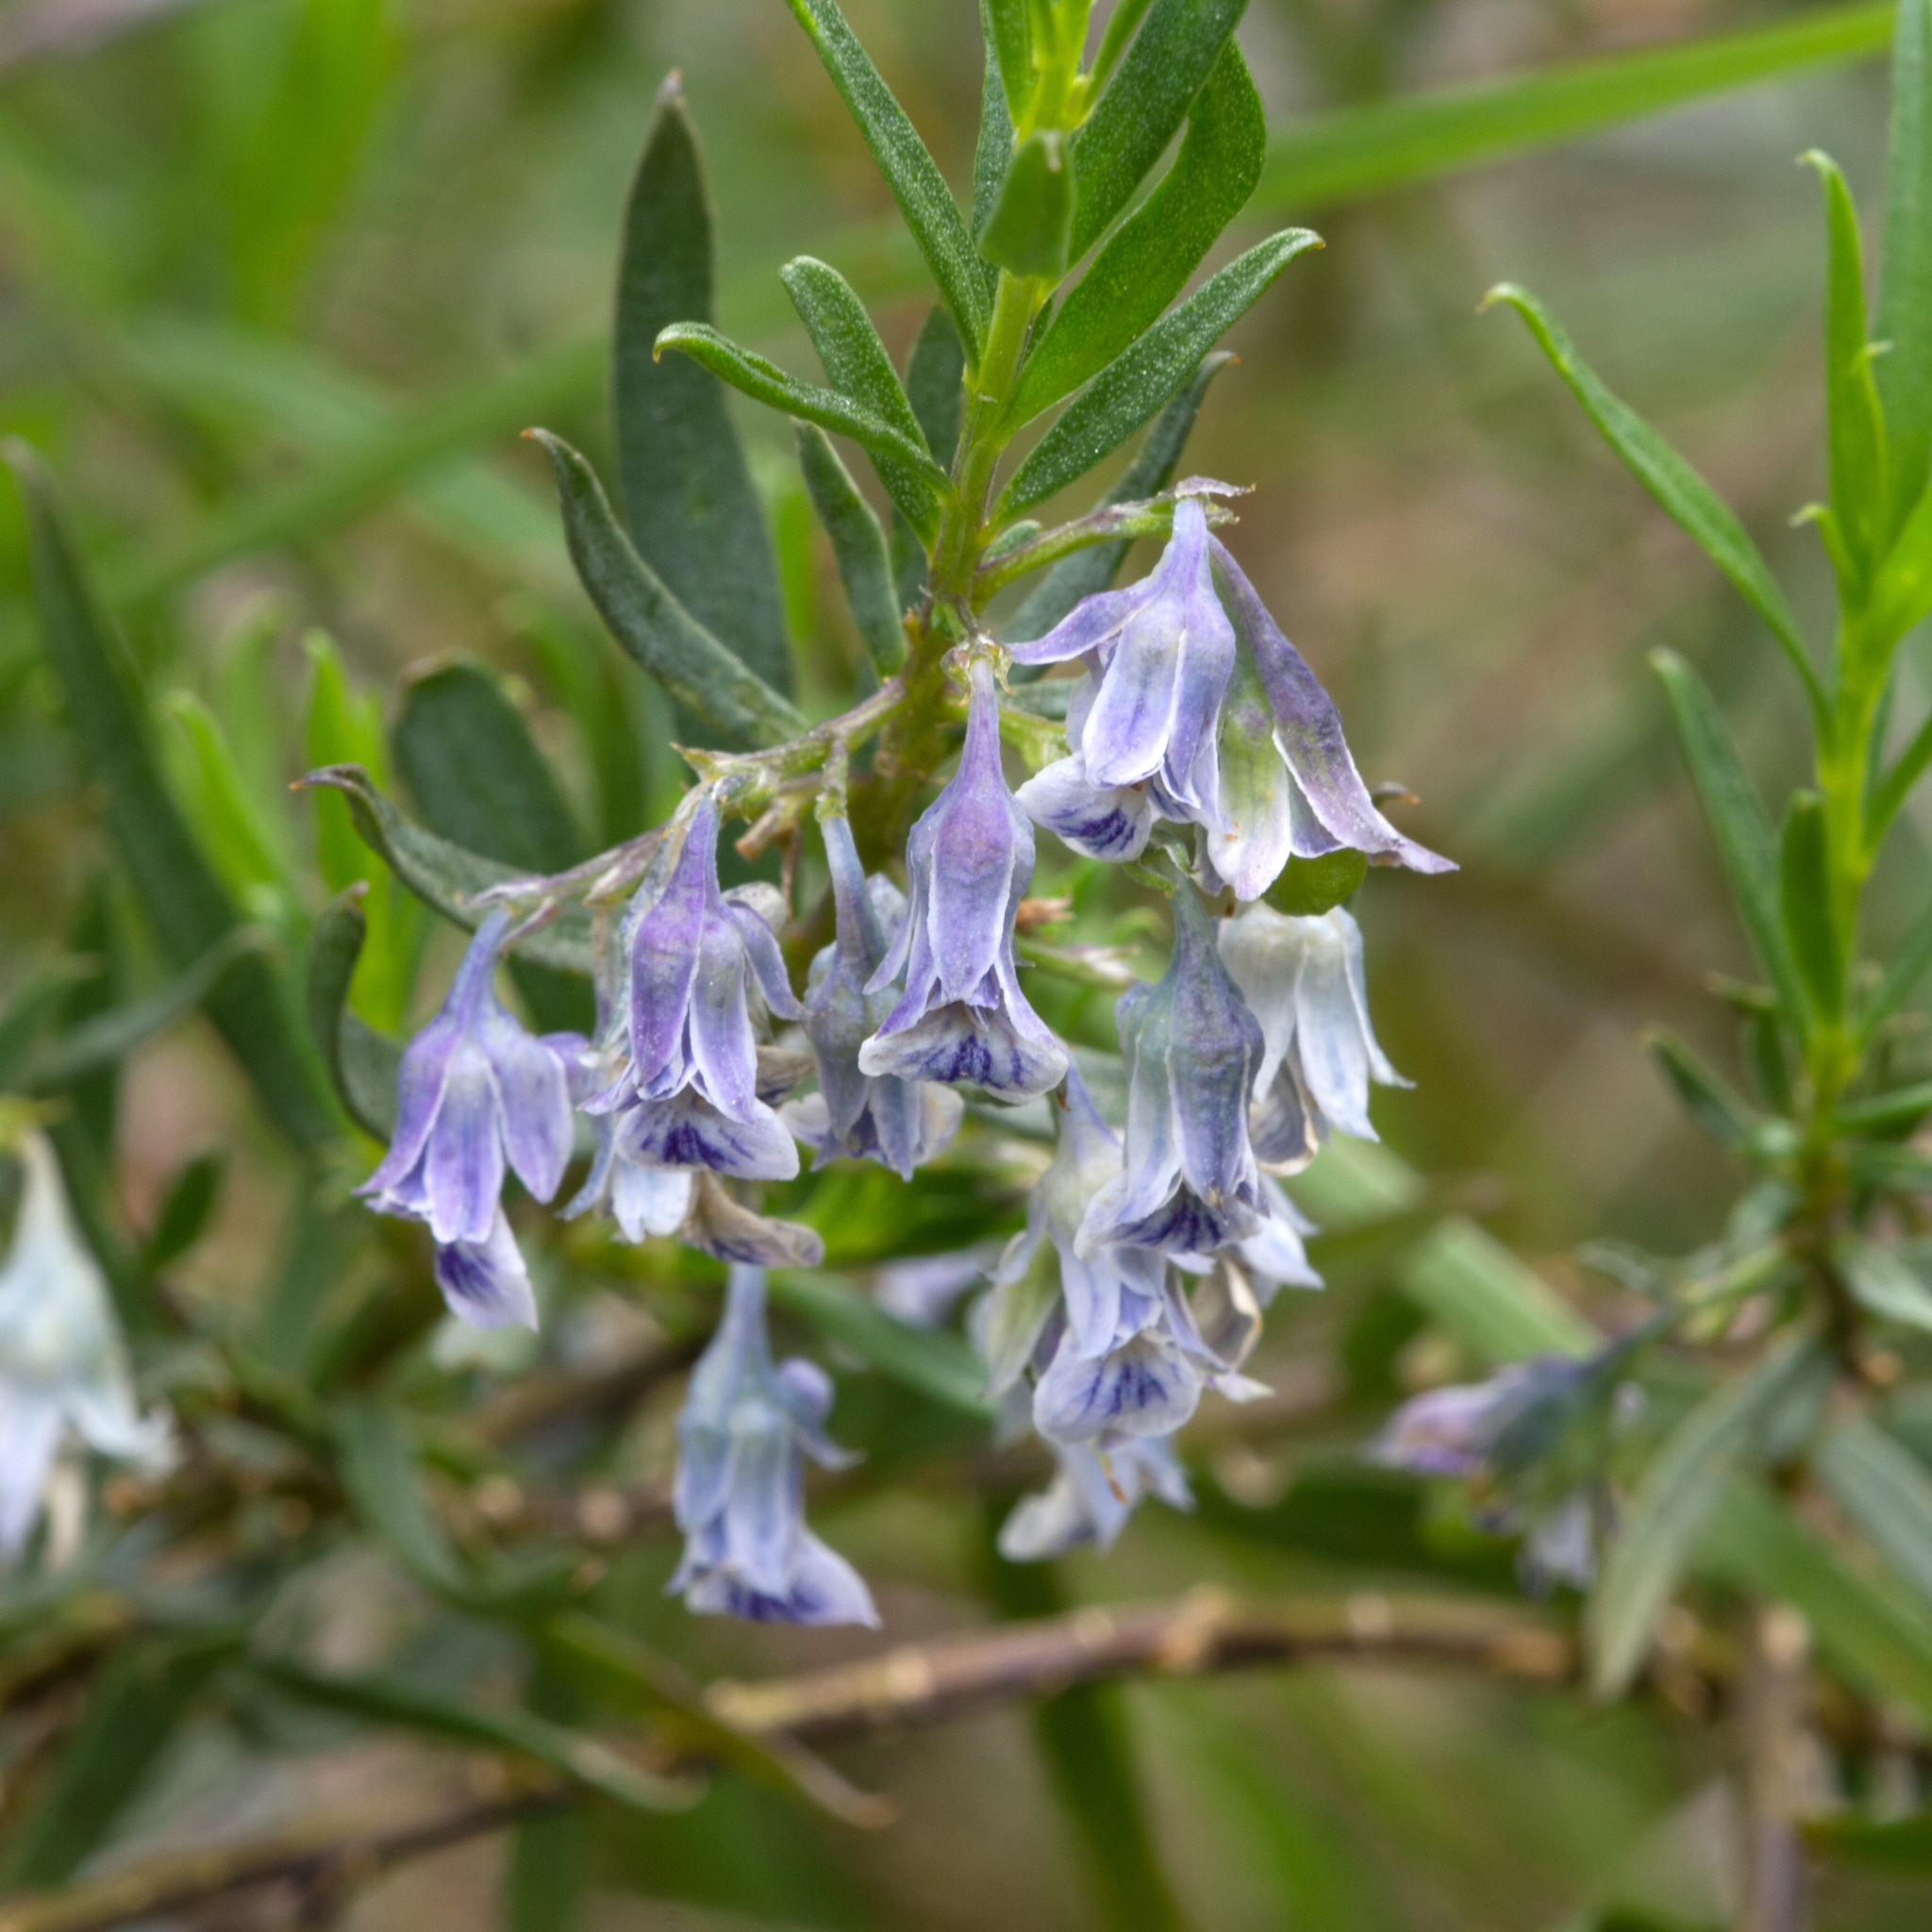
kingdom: Plantae
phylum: Tracheophyta
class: Magnoliopsida
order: Malpighiales
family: Violaceae
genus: Pigea
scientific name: Pigea floribunda
